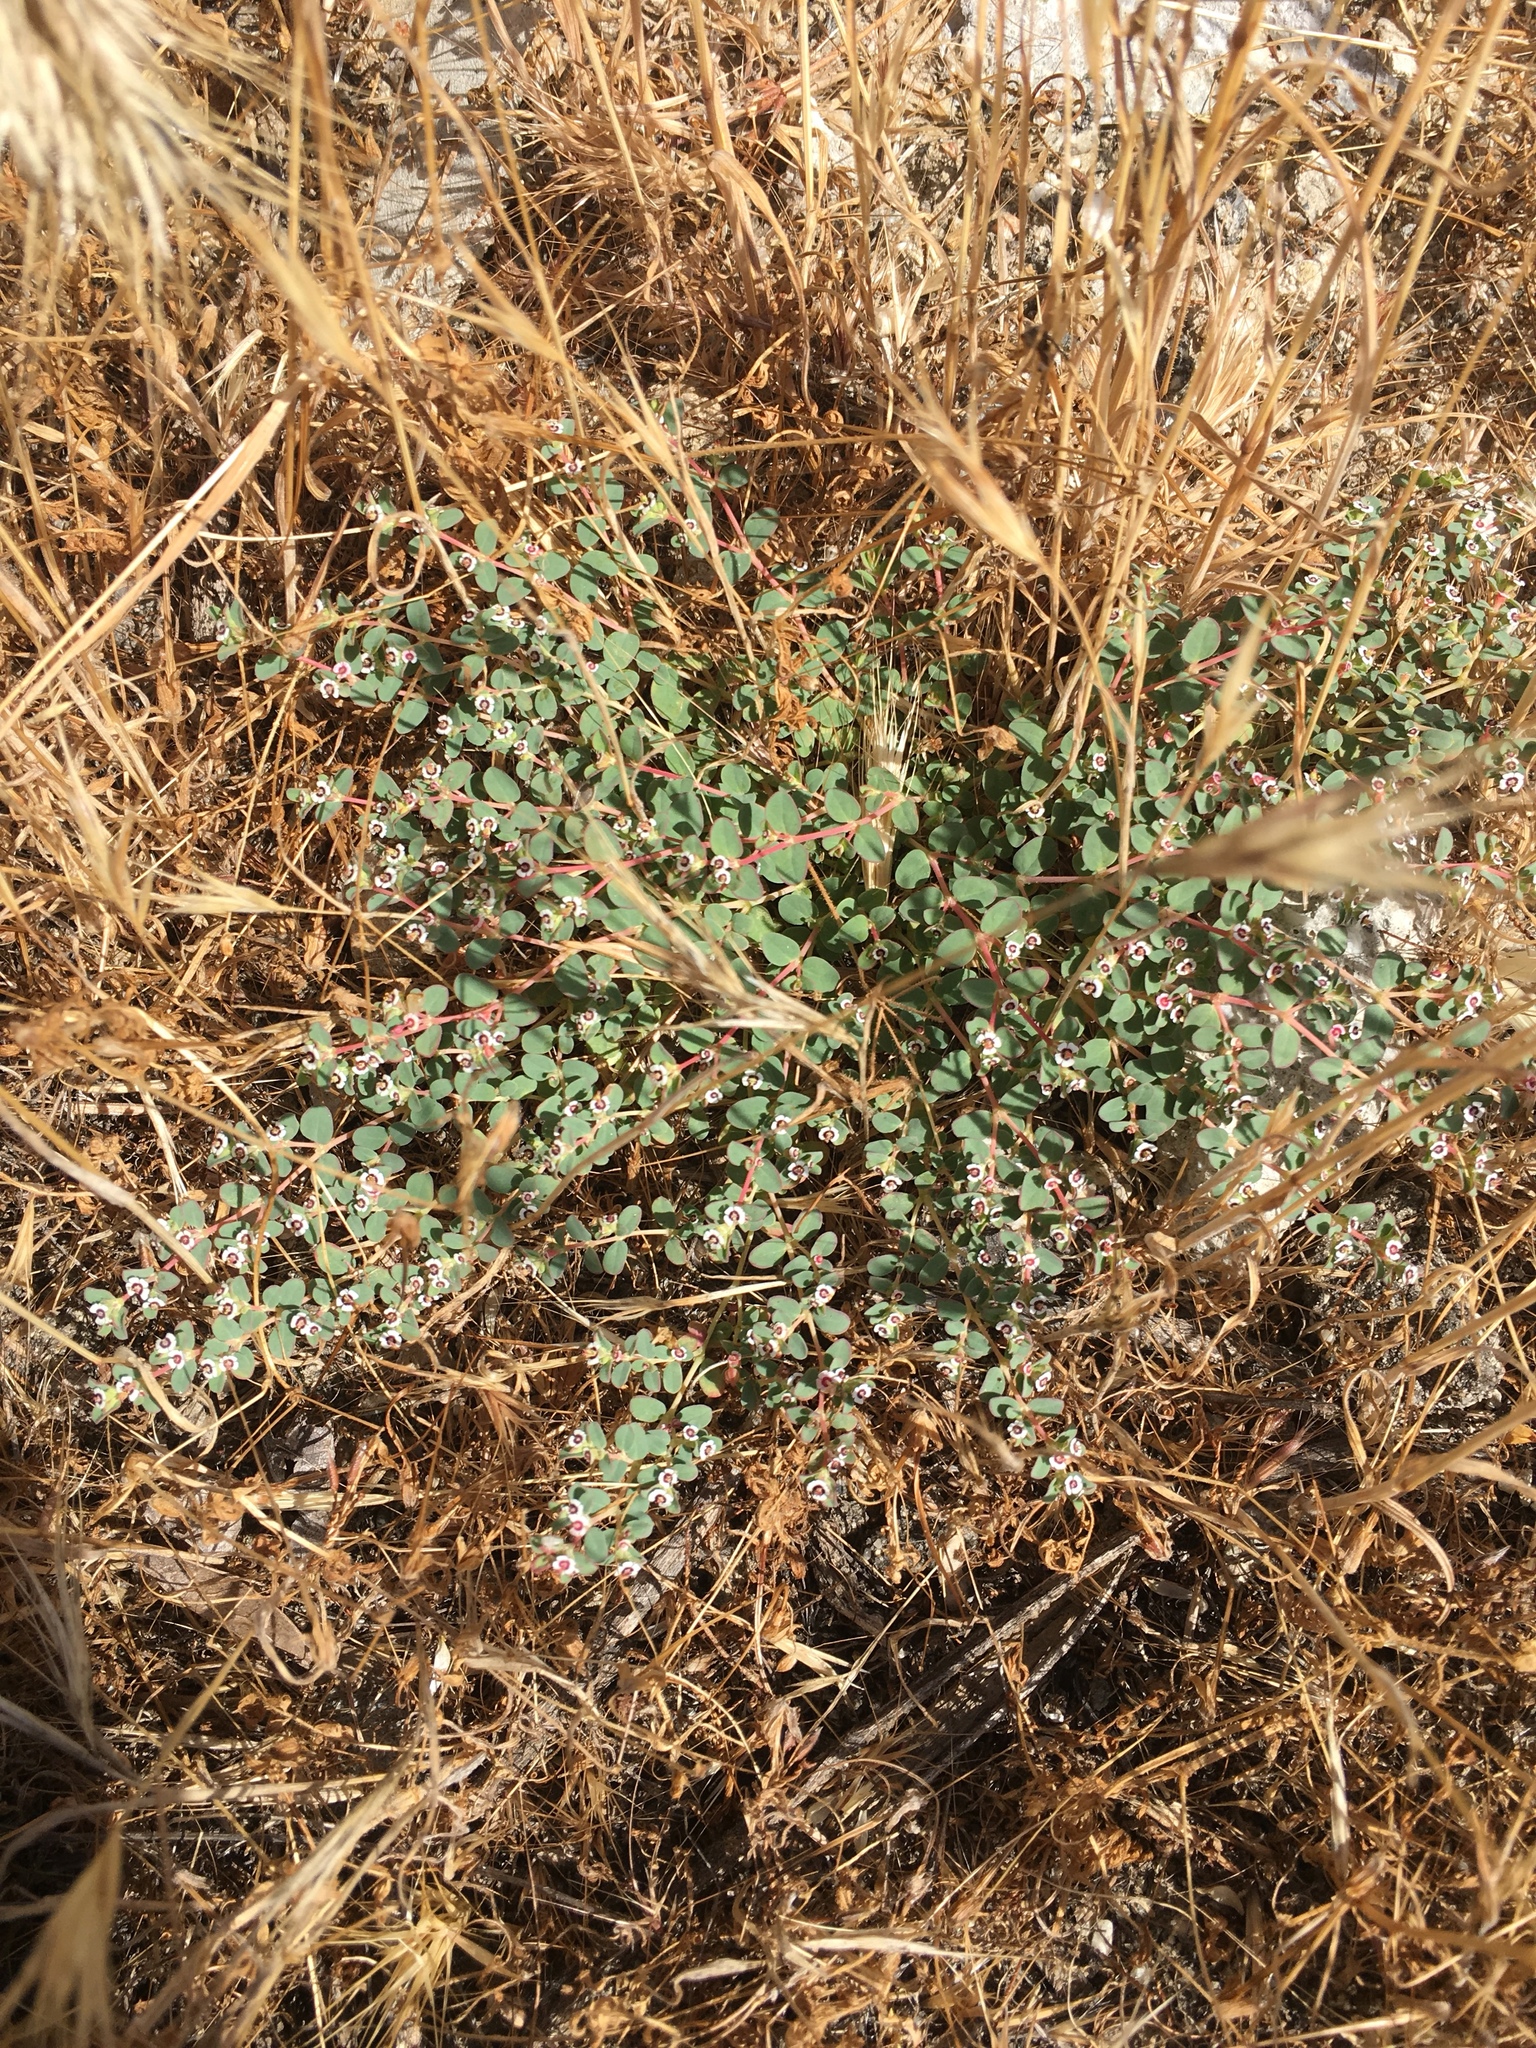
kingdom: Plantae
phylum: Tracheophyta
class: Magnoliopsida
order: Malpighiales
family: Euphorbiaceae
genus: Euphorbia
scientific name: Euphorbia polycarpa
